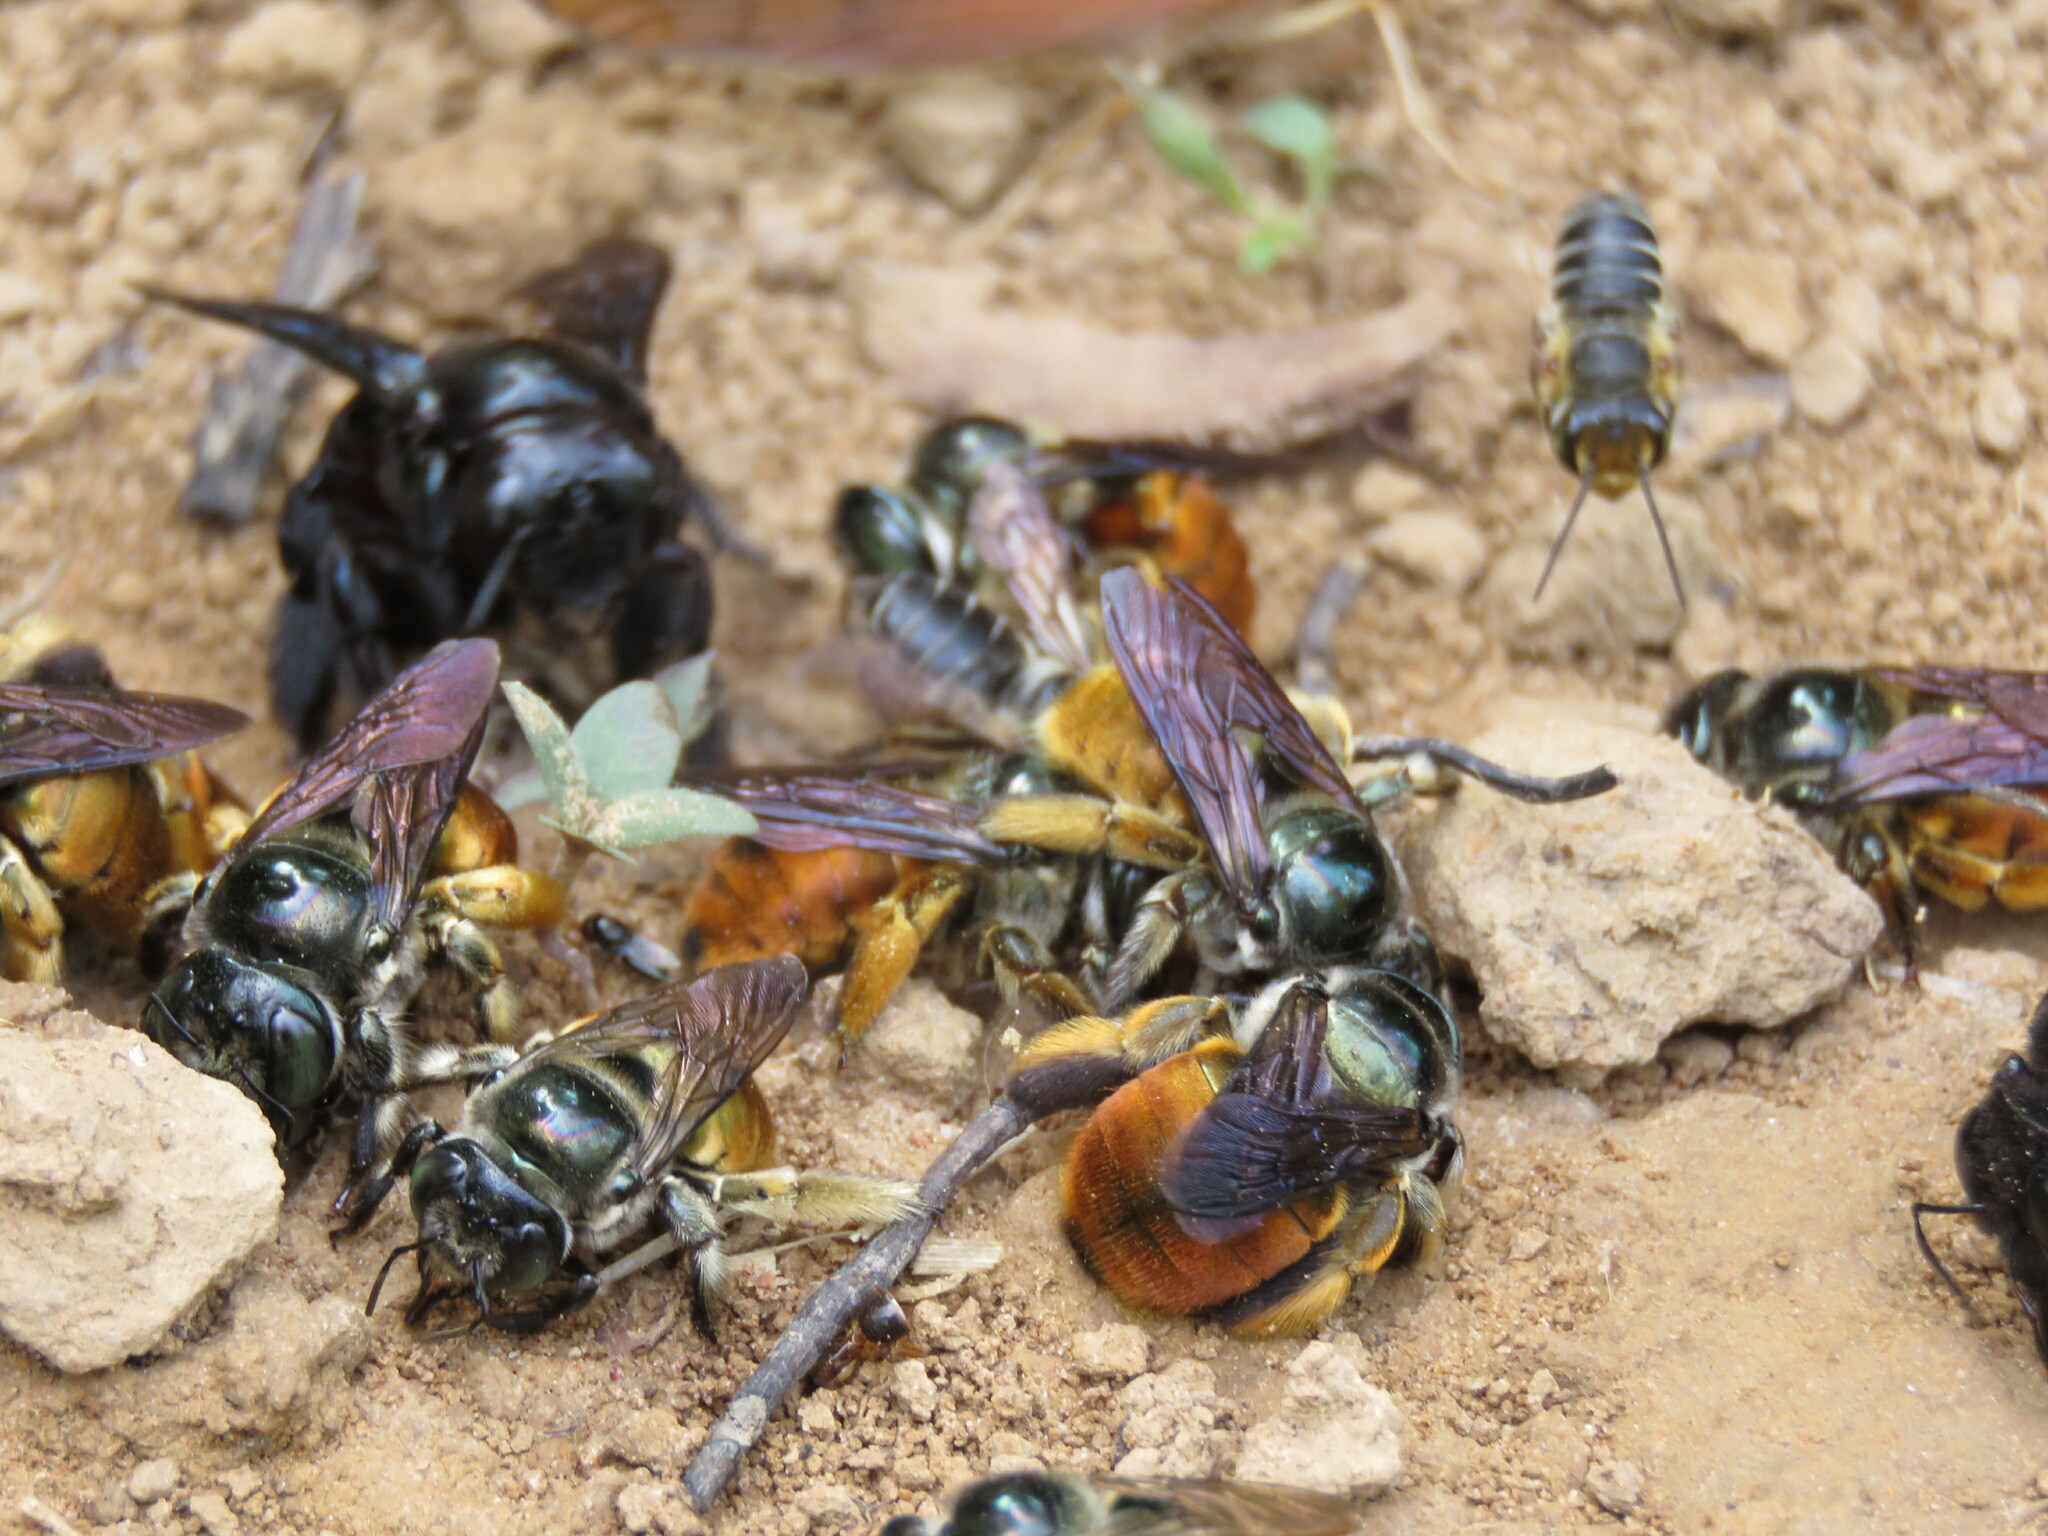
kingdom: Animalia
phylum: Arthropoda
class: Insecta
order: Hymenoptera
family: Apidae
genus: Xylocopa
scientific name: Xylocopa ornata
